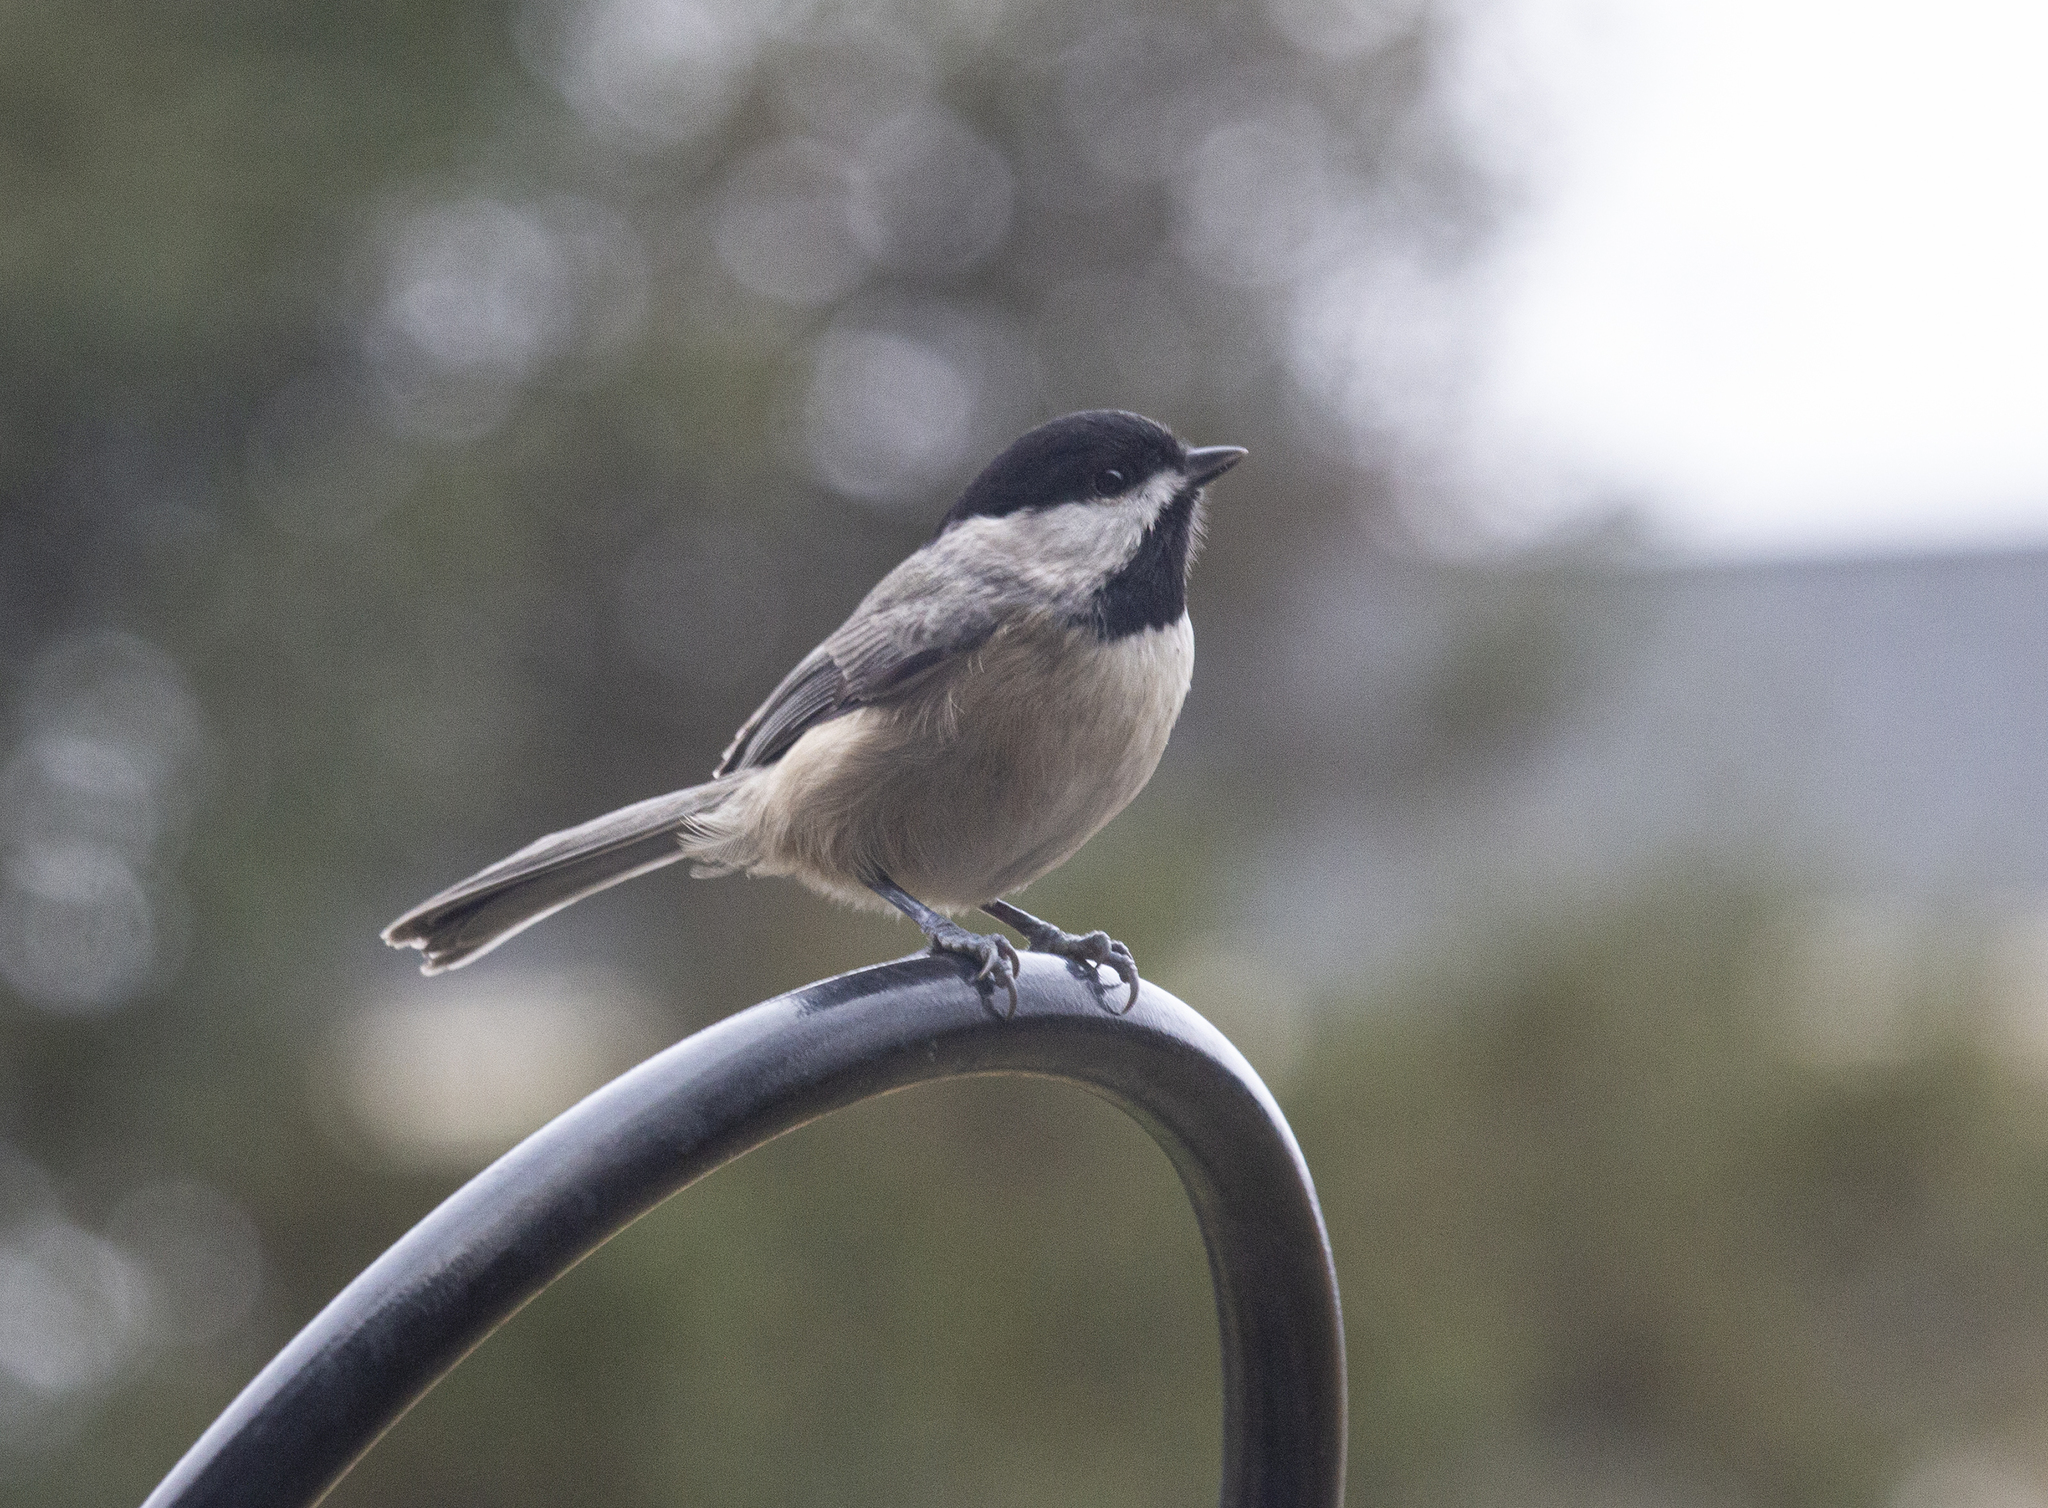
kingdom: Animalia
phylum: Chordata
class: Aves
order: Passeriformes
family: Paridae
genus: Poecile
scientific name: Poecile carolinensis
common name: Carolina chickadee
